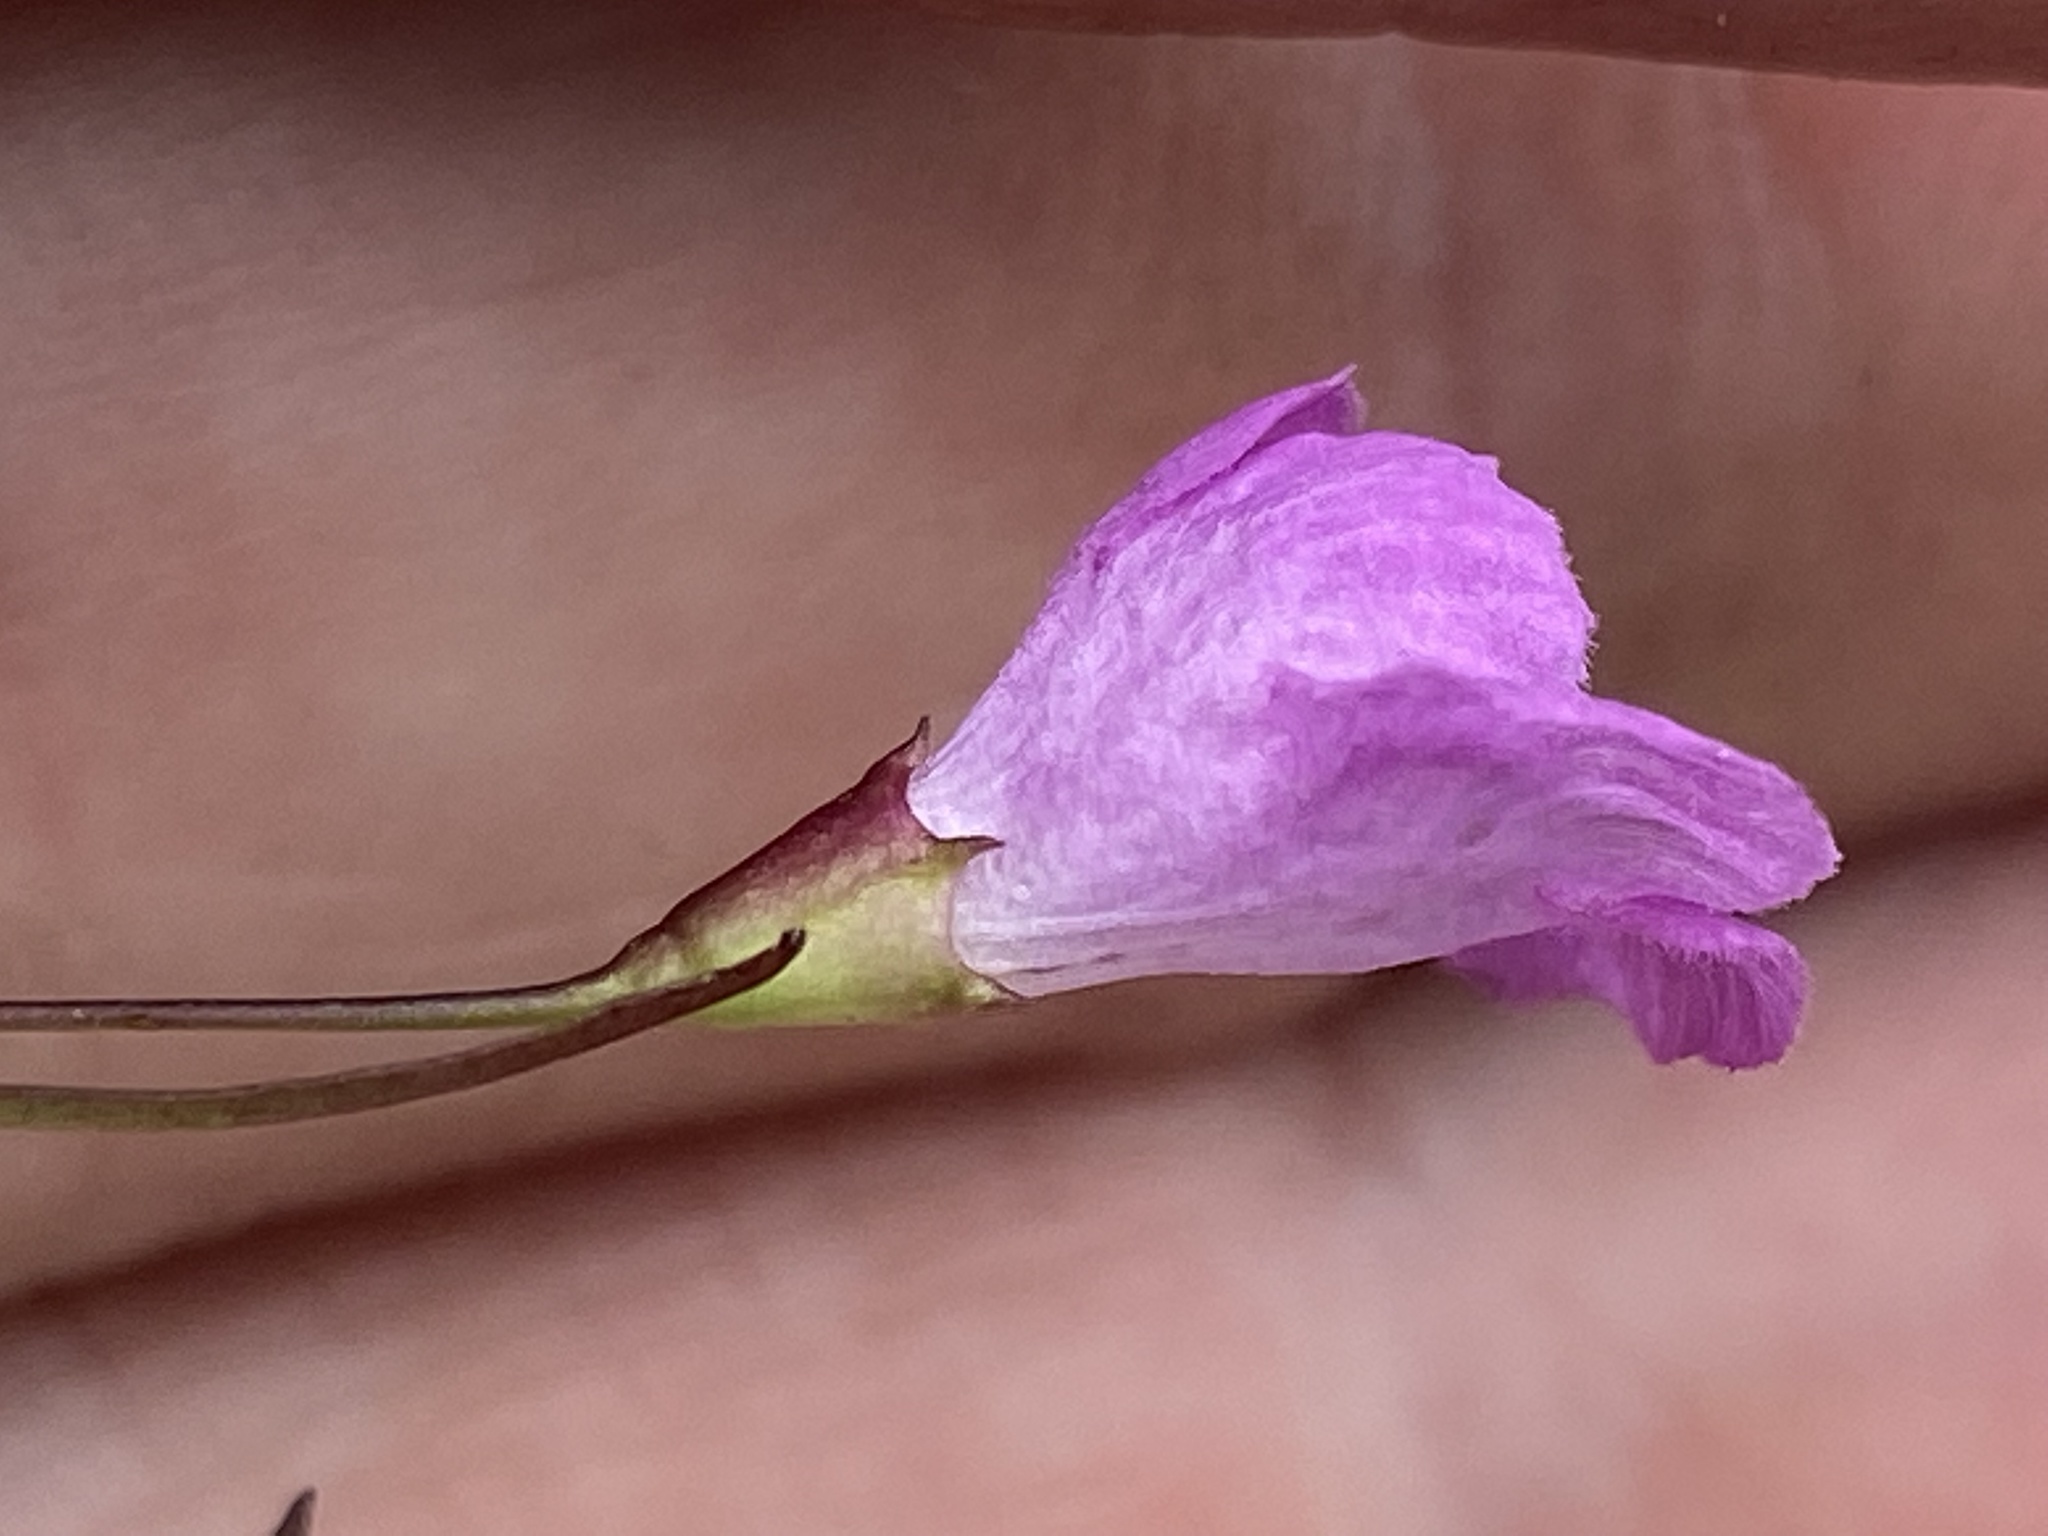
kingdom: Plantae
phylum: Tracheophyta
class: Magnoliopsida
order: Lamiales
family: Orobanchaceae
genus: Agalinis
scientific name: Agalinis tenuifolia
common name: Slender agalinis
